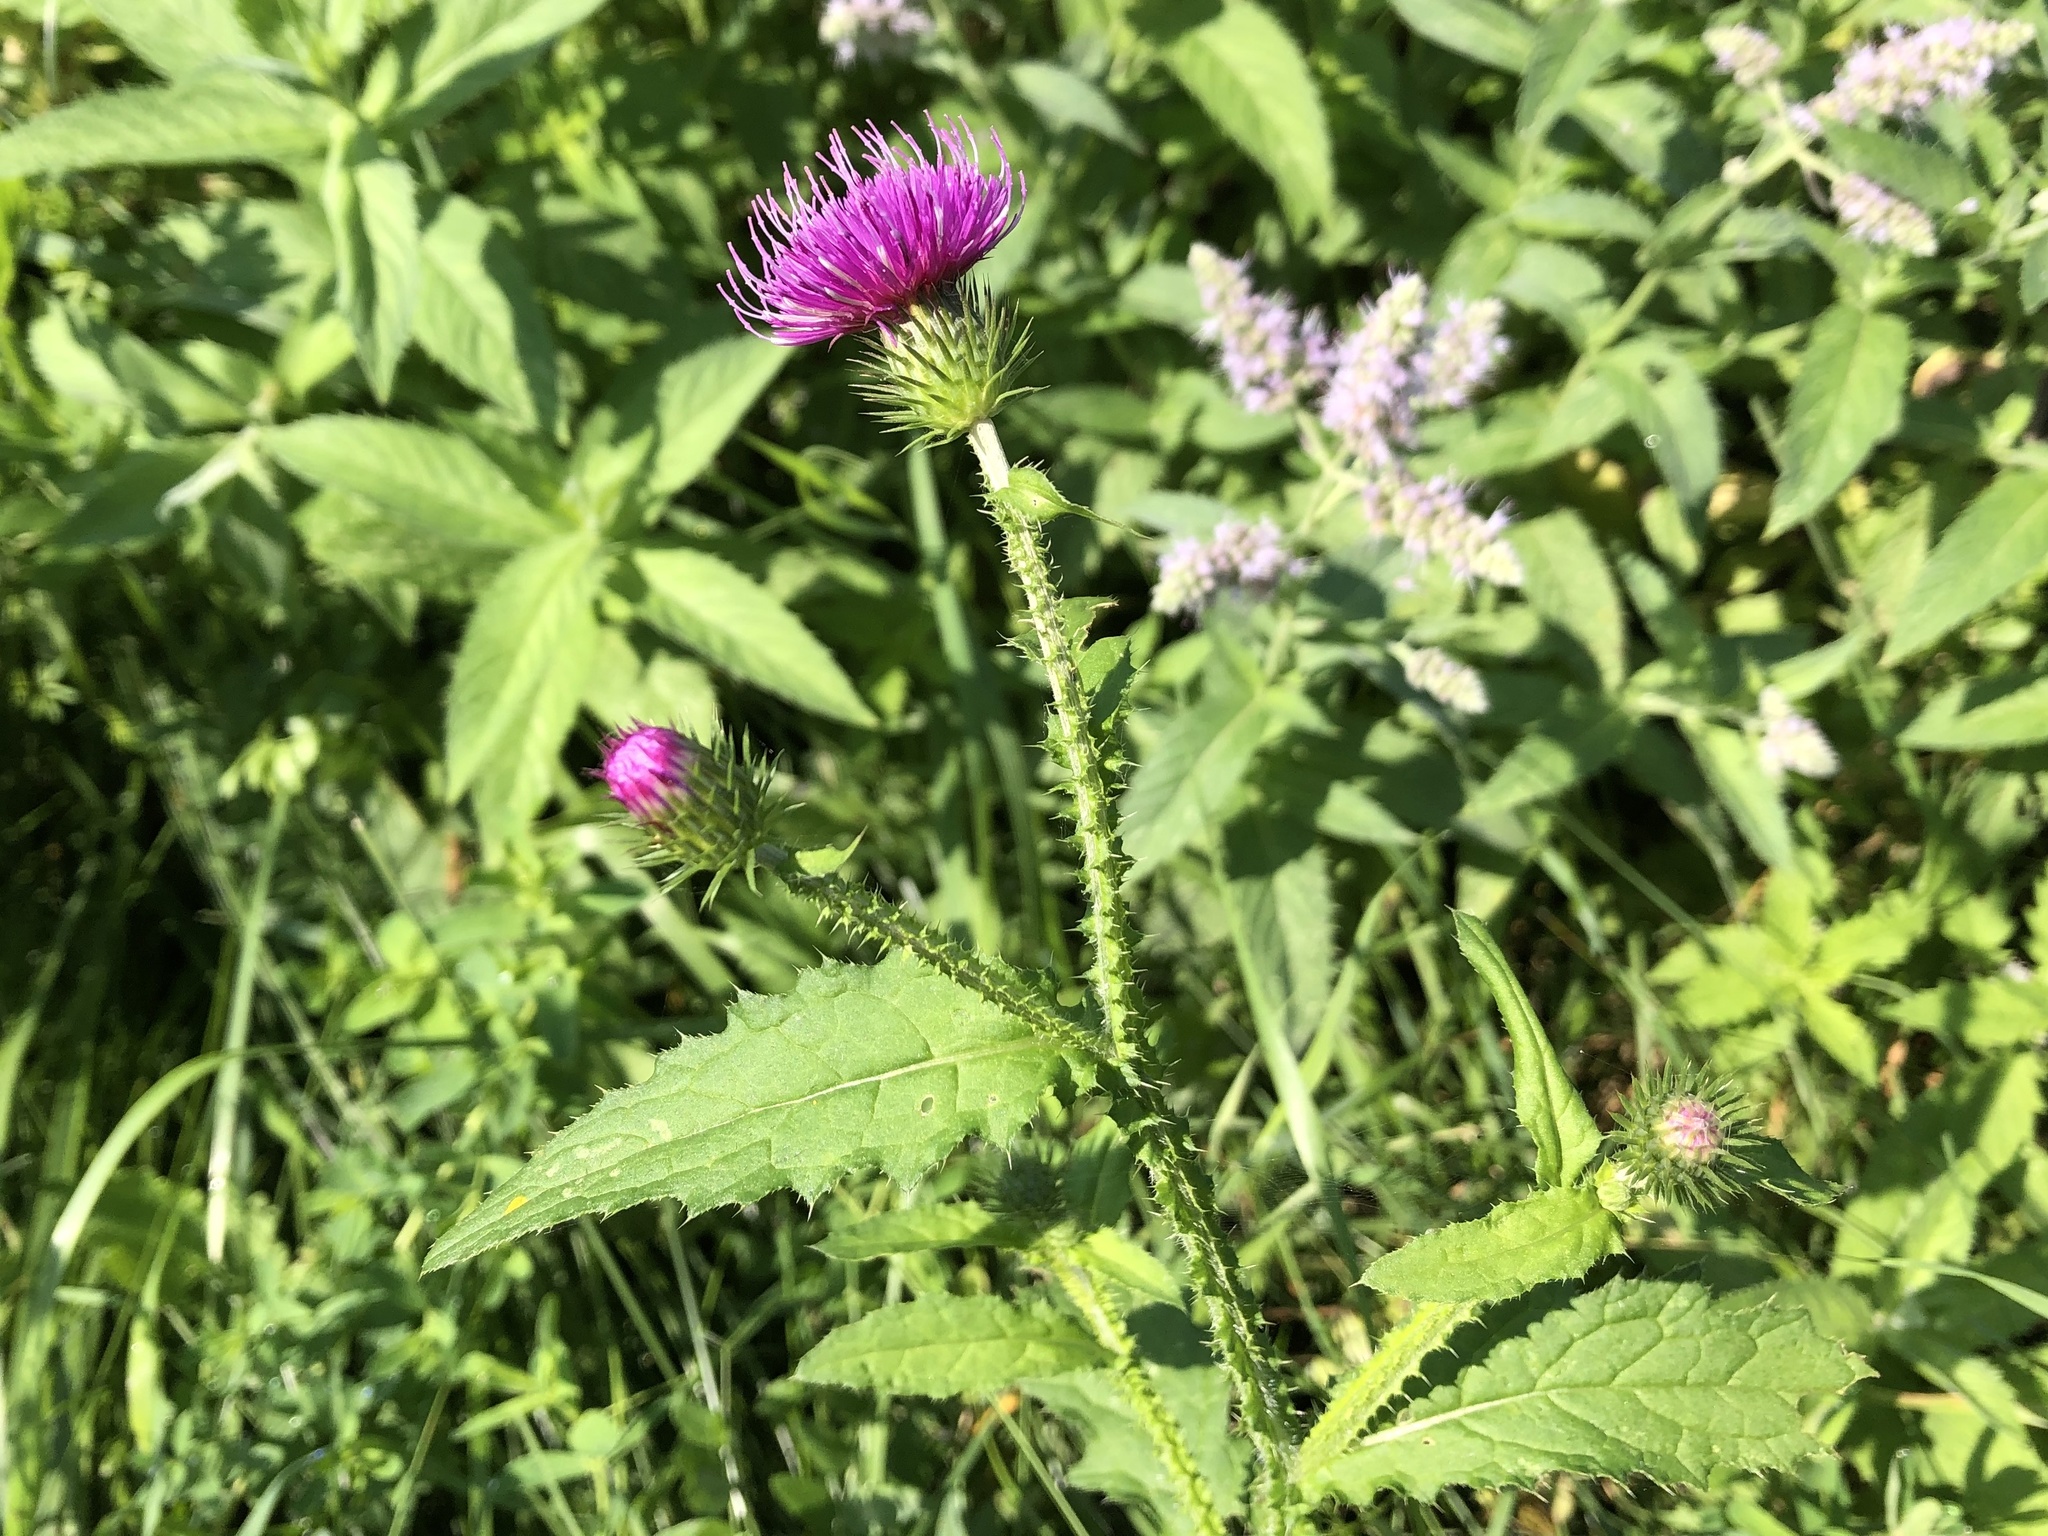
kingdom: Plantae
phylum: Tracheophyta
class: Magnoliopsida
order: Asterales
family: Asteraceae
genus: Carduus
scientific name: Carduus crispus
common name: Welted thistle
